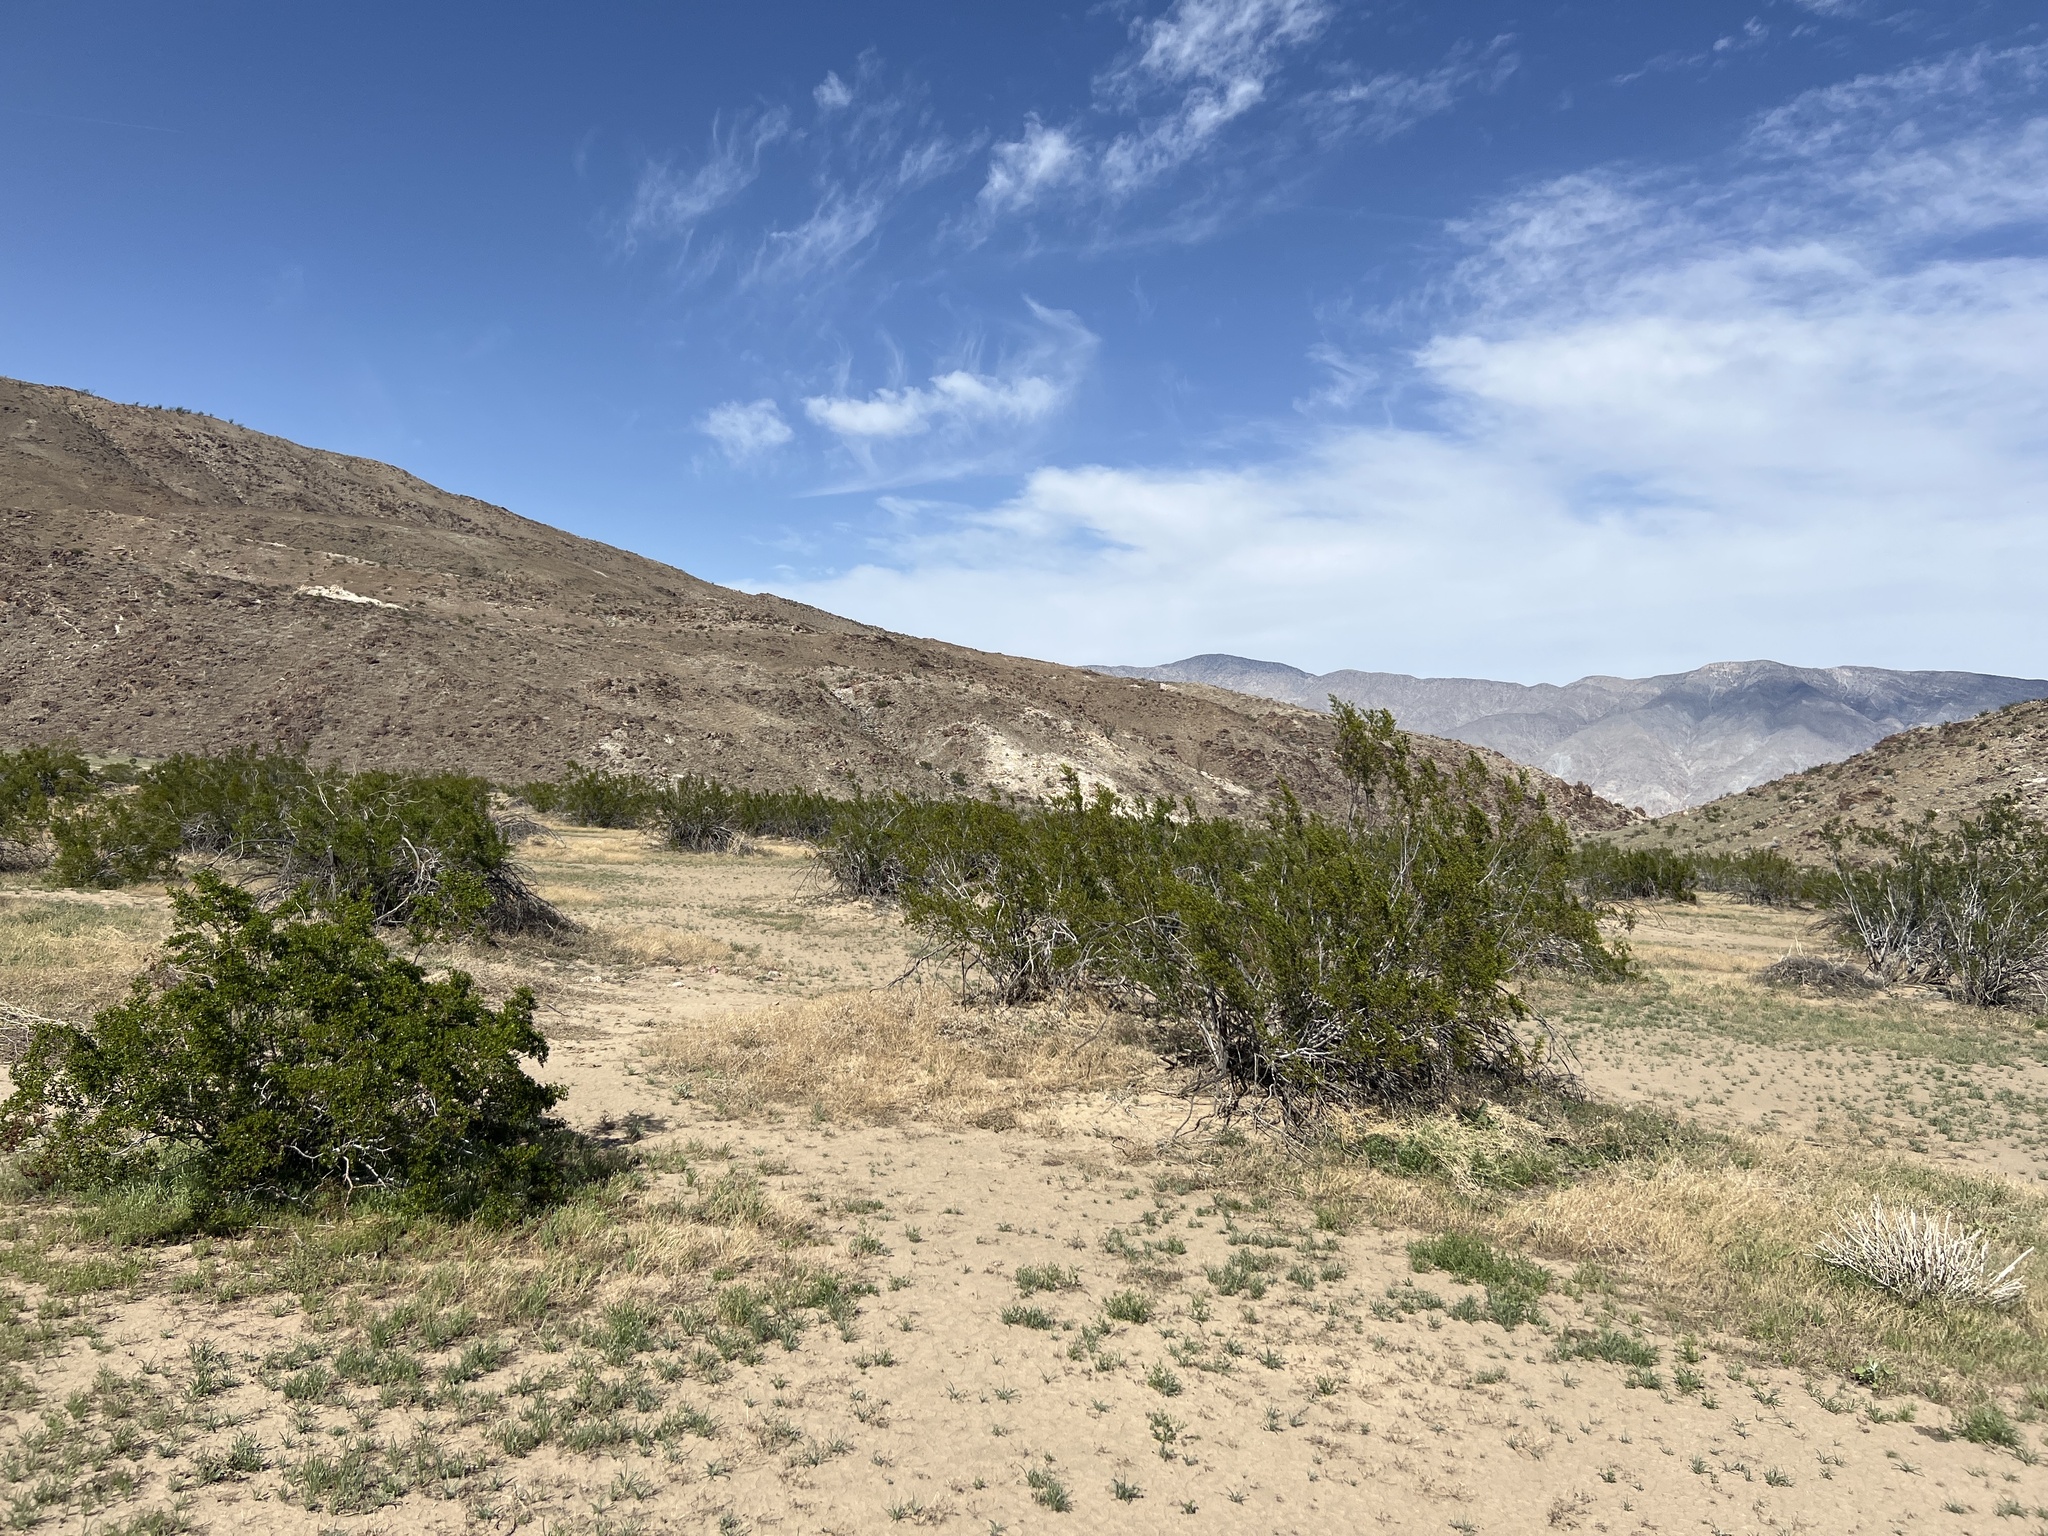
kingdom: Plantae
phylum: Tracheophyta
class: Magnoliopsida
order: Zygophyllales
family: Zygophyllaceae
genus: Larrea
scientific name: Larrea tridentata
